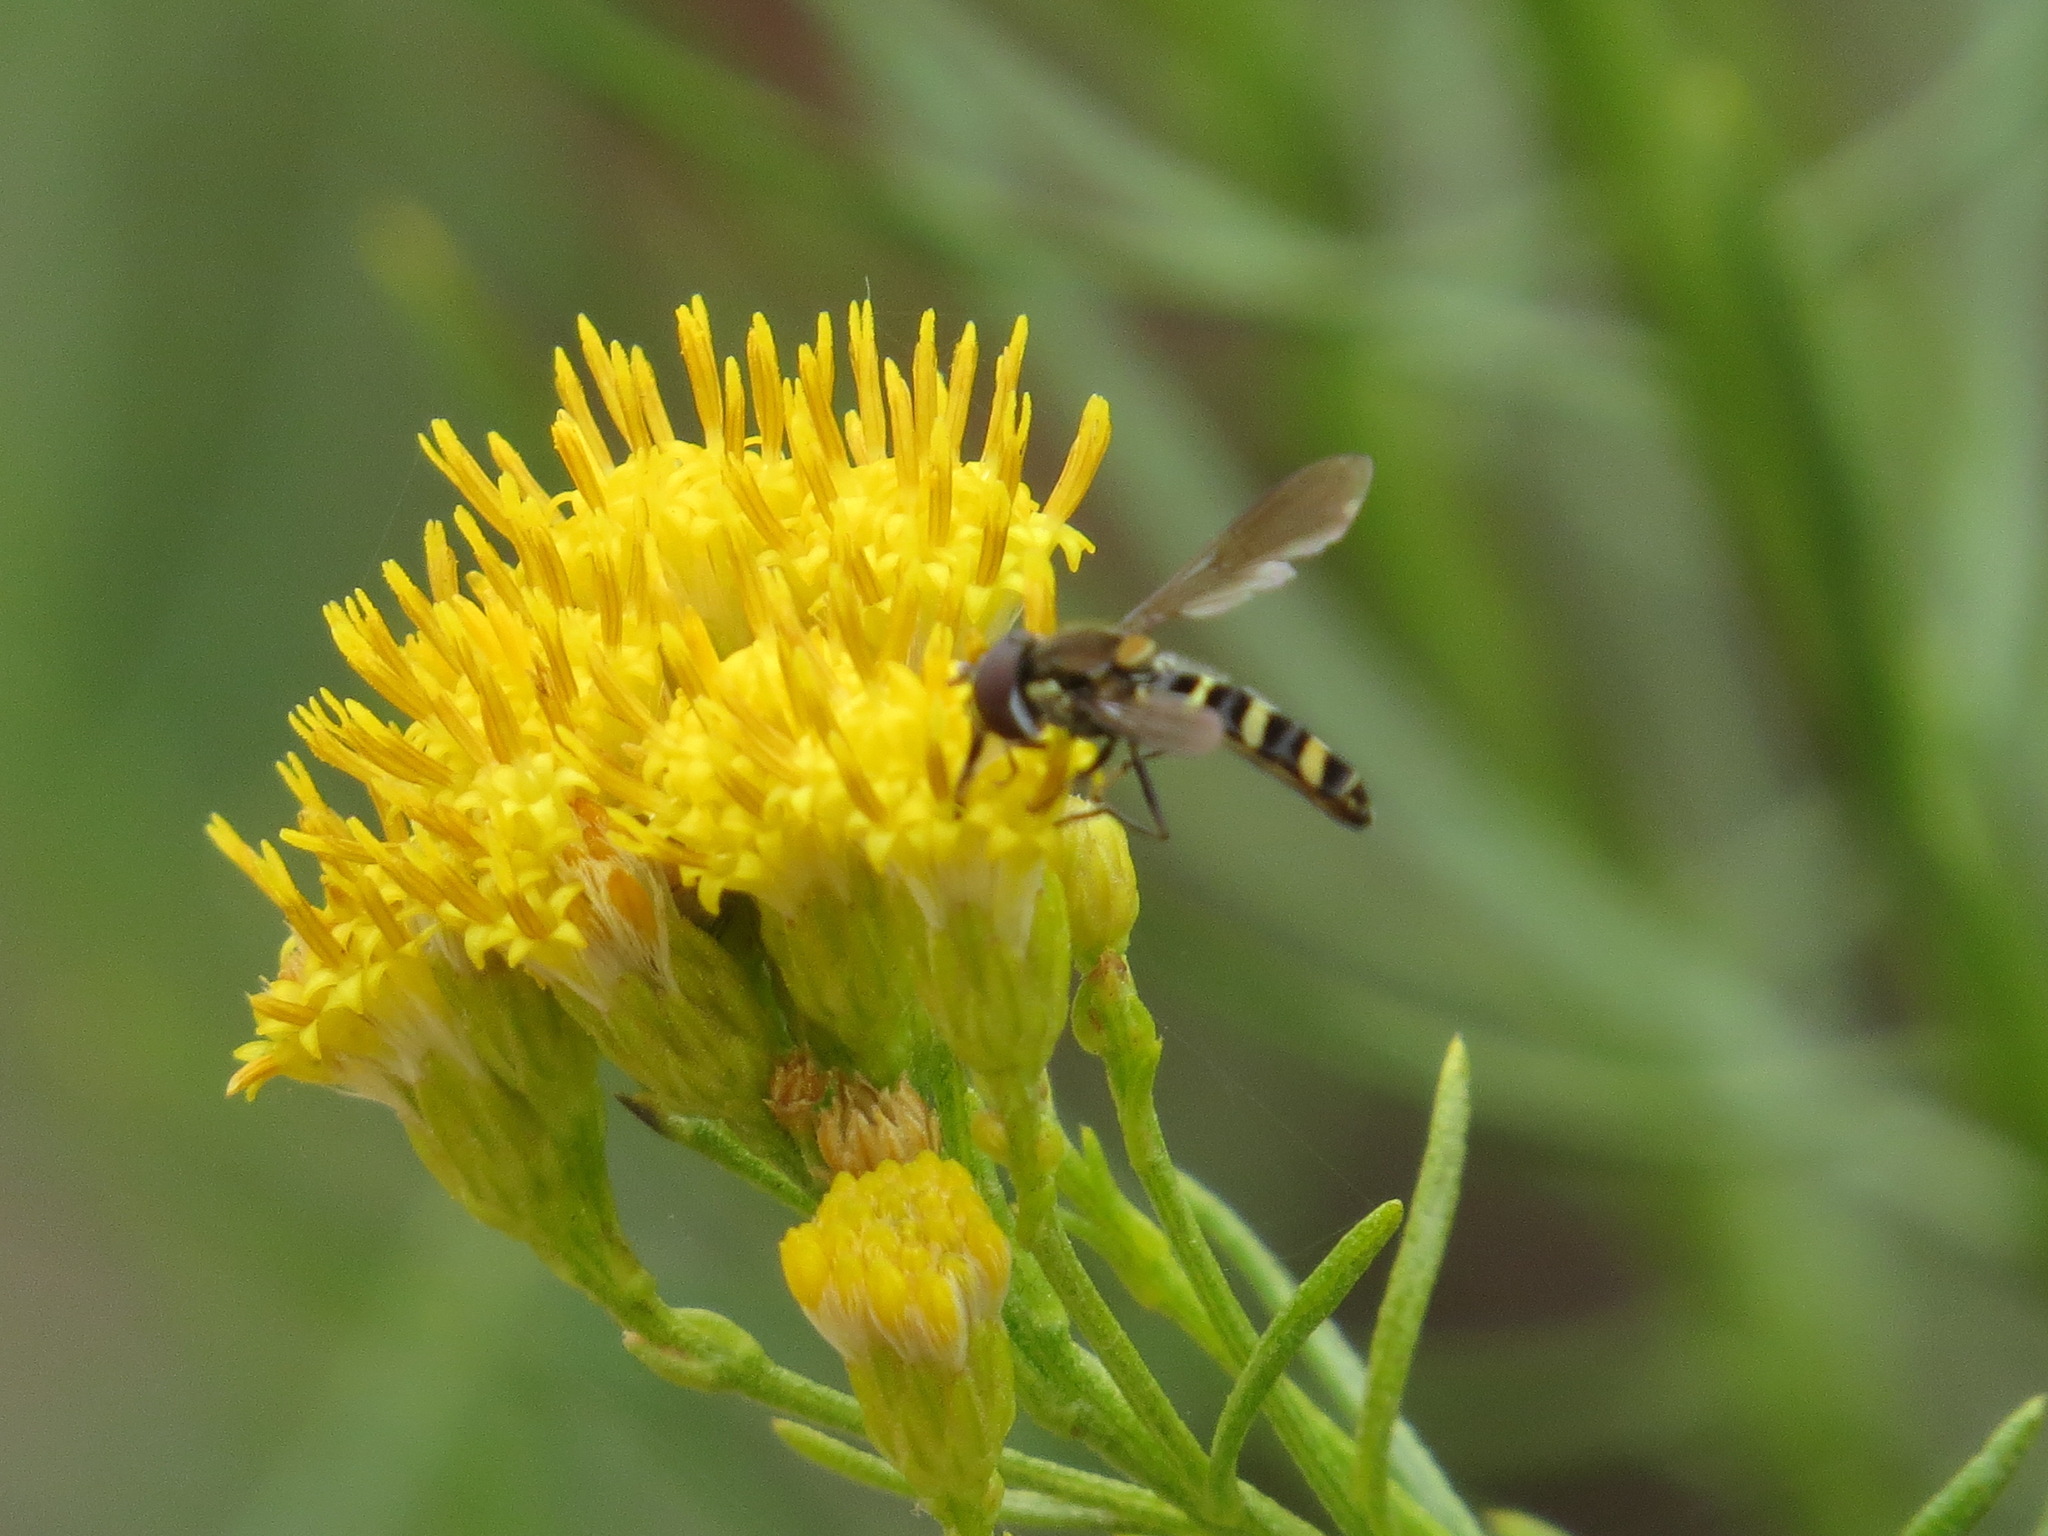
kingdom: Animalia
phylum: Arthropoda
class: Insecta
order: Diptera
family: Syrphidae
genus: Fazia
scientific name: Fazia micrura
